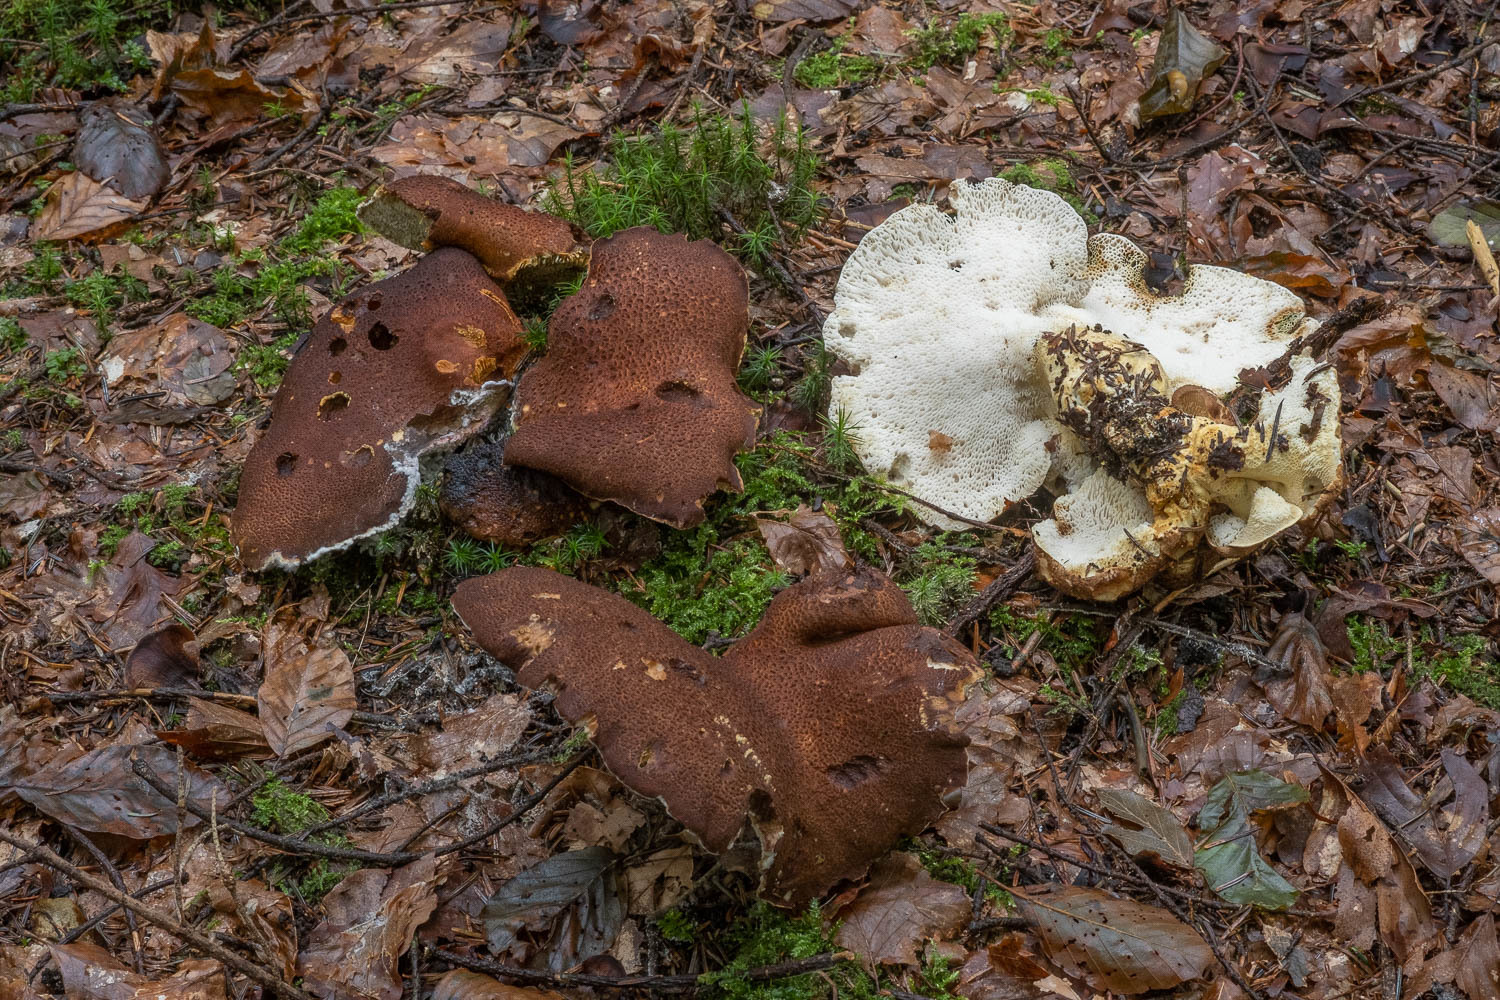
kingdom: Fungi
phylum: Basidiomycota
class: Agaricomycetes
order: Russulales
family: Albatrellaceae
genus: Scutiger
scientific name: Scutiger pes-caprae
